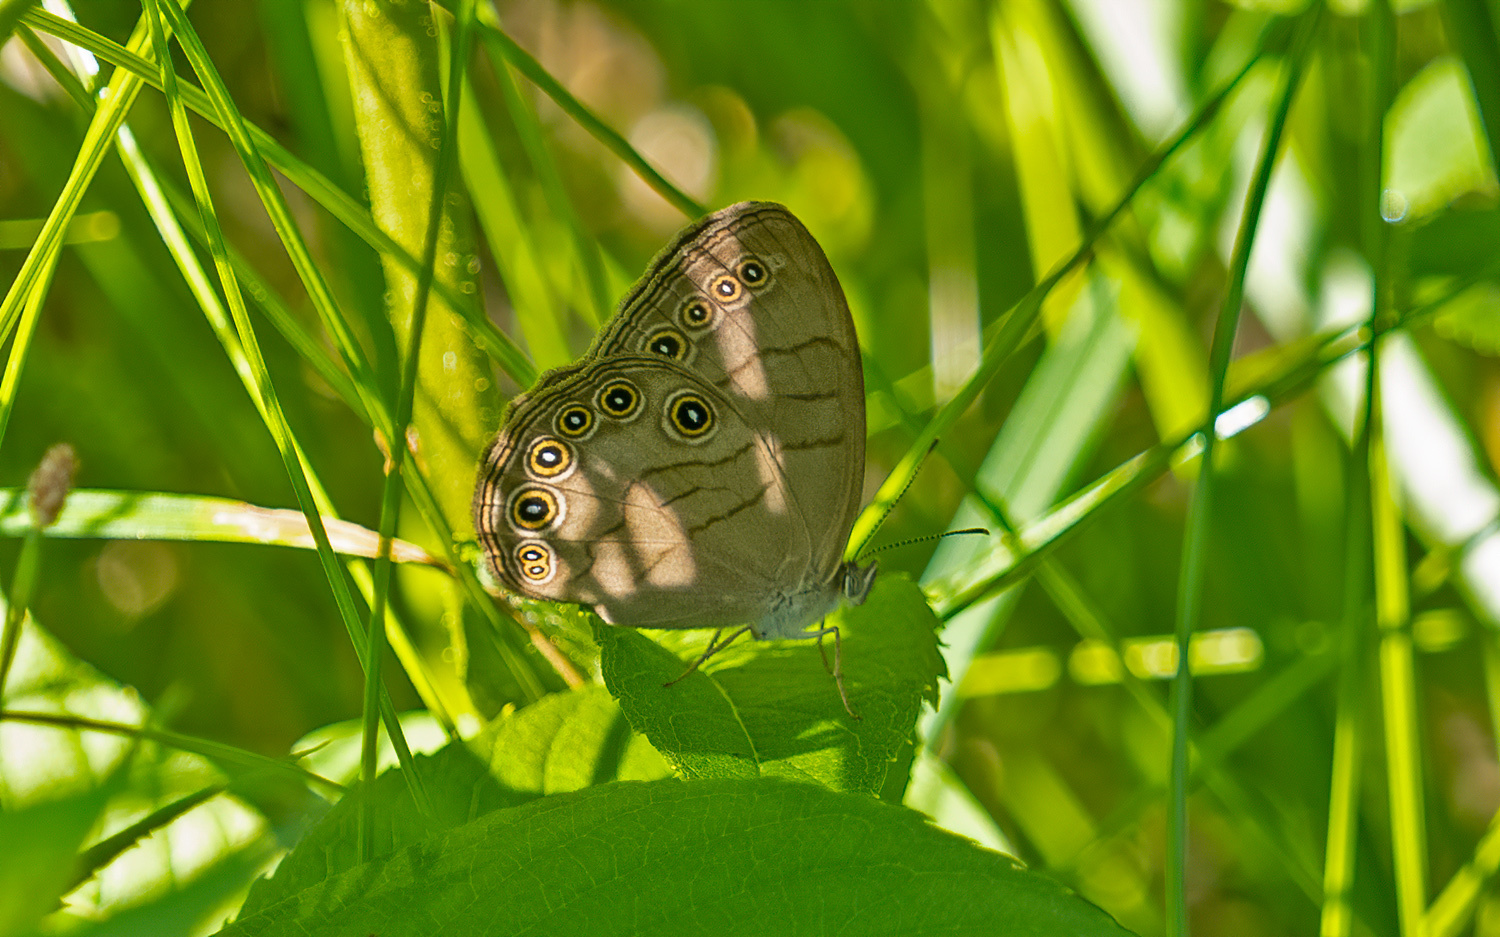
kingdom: Animalia
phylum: Arthropoda
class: Insecta
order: Lepidoptera
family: Nymphalidae
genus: Lethe
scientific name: Lethe eurydice
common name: Eyed brown
